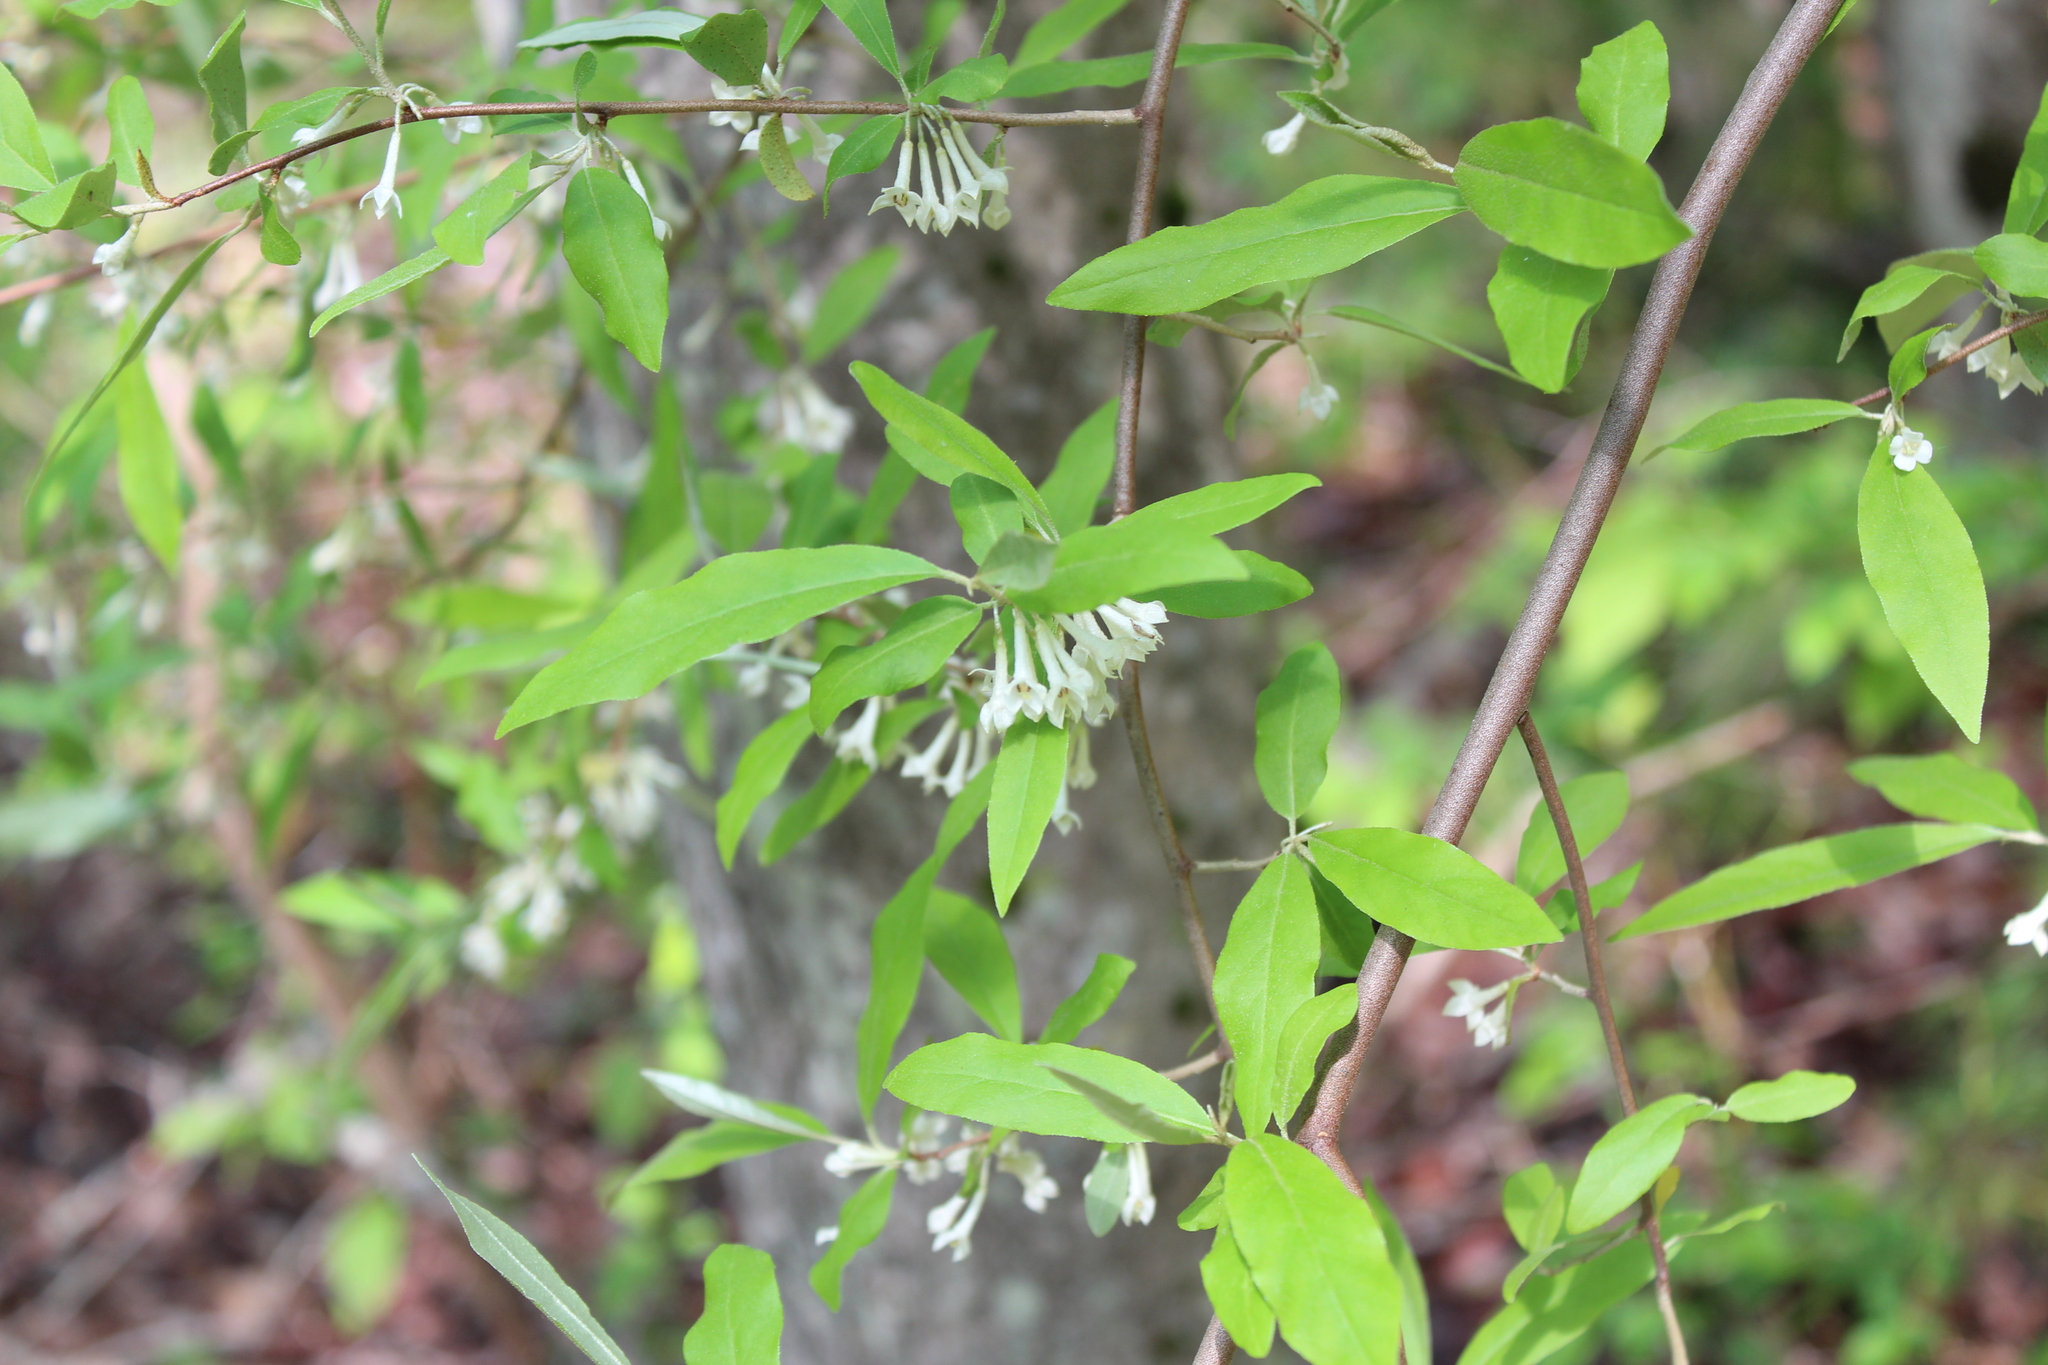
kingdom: Plantae
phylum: Tracheophyta
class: Magnoliopsida
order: Rosales
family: Elaeagnaceae
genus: Elaeagnus
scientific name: Elaeagnus umbellata
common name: Autumn olive
